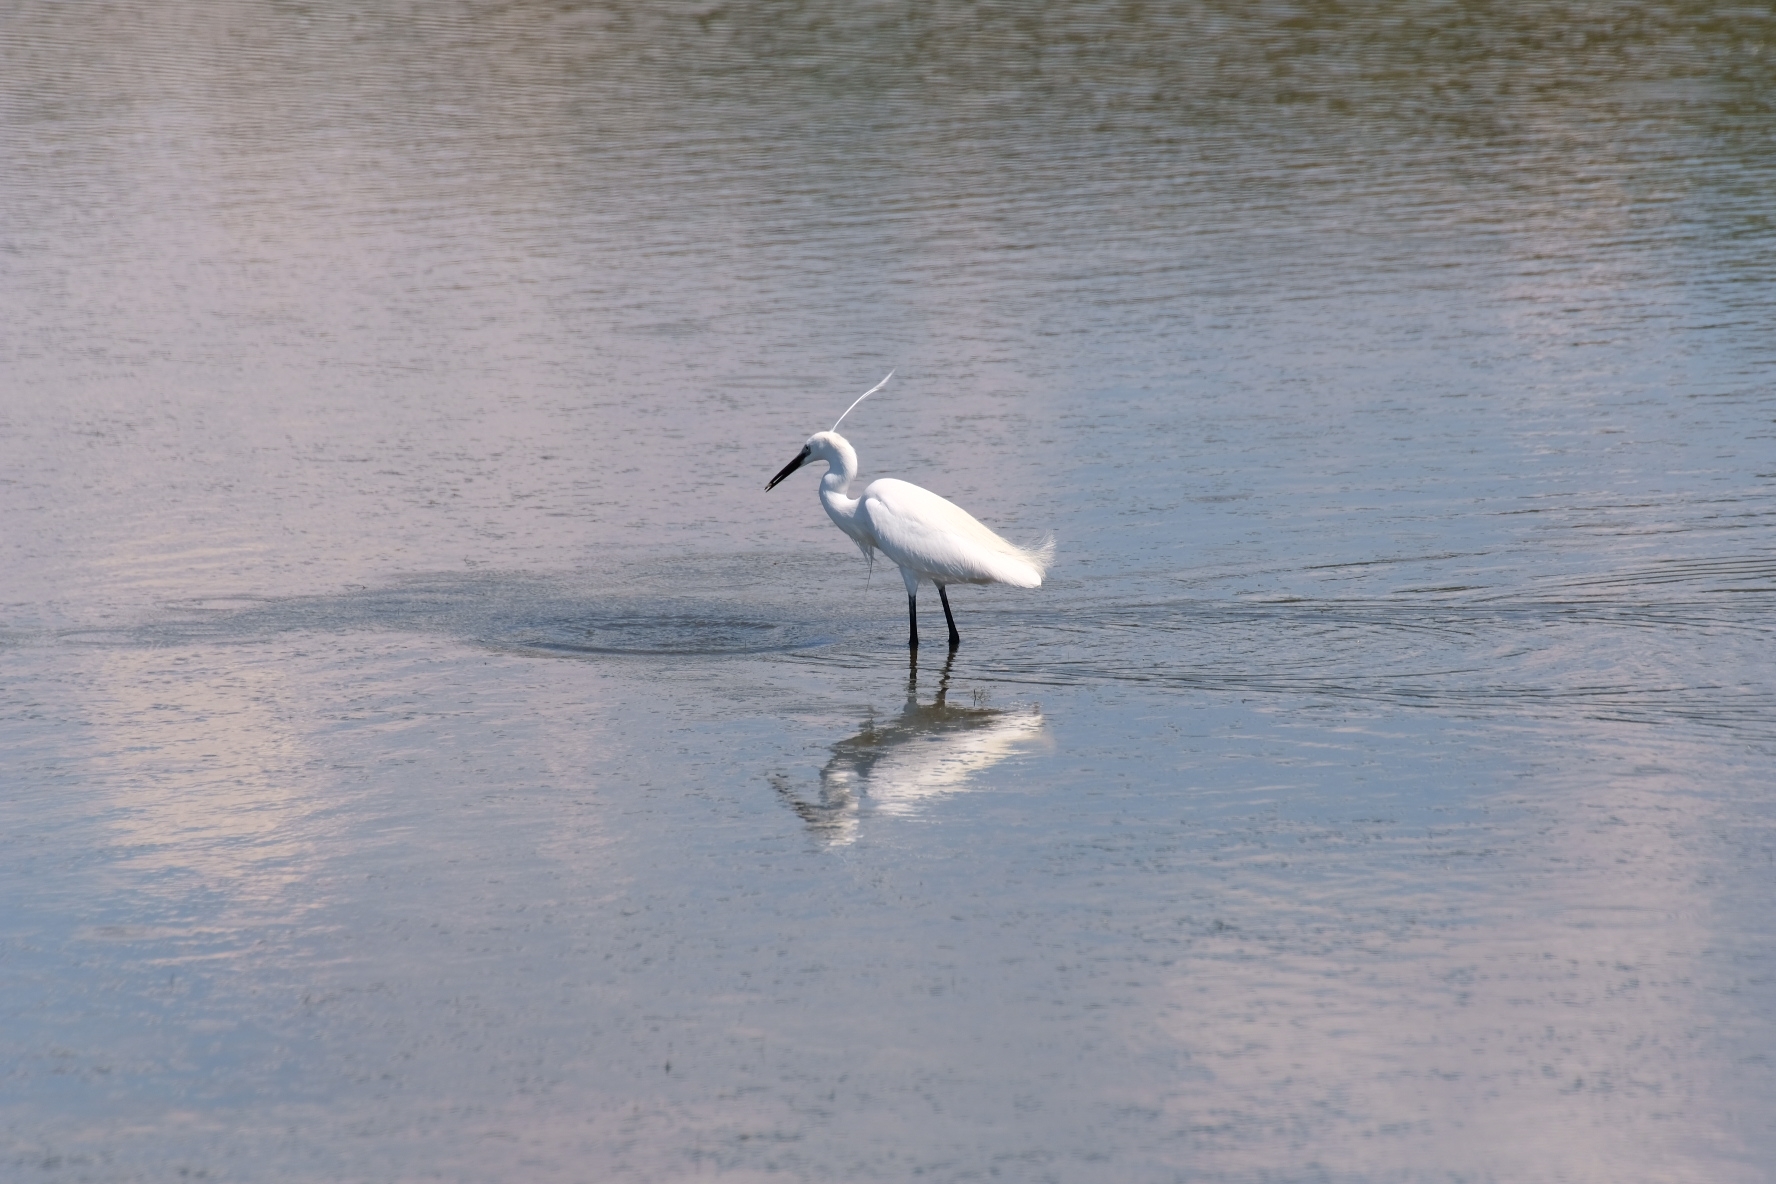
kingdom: Animalia
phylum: Chordata
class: Aves
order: Pelecaniformes
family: Ardeidae
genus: Egretta
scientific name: Egretta garzetta
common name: Little egret
